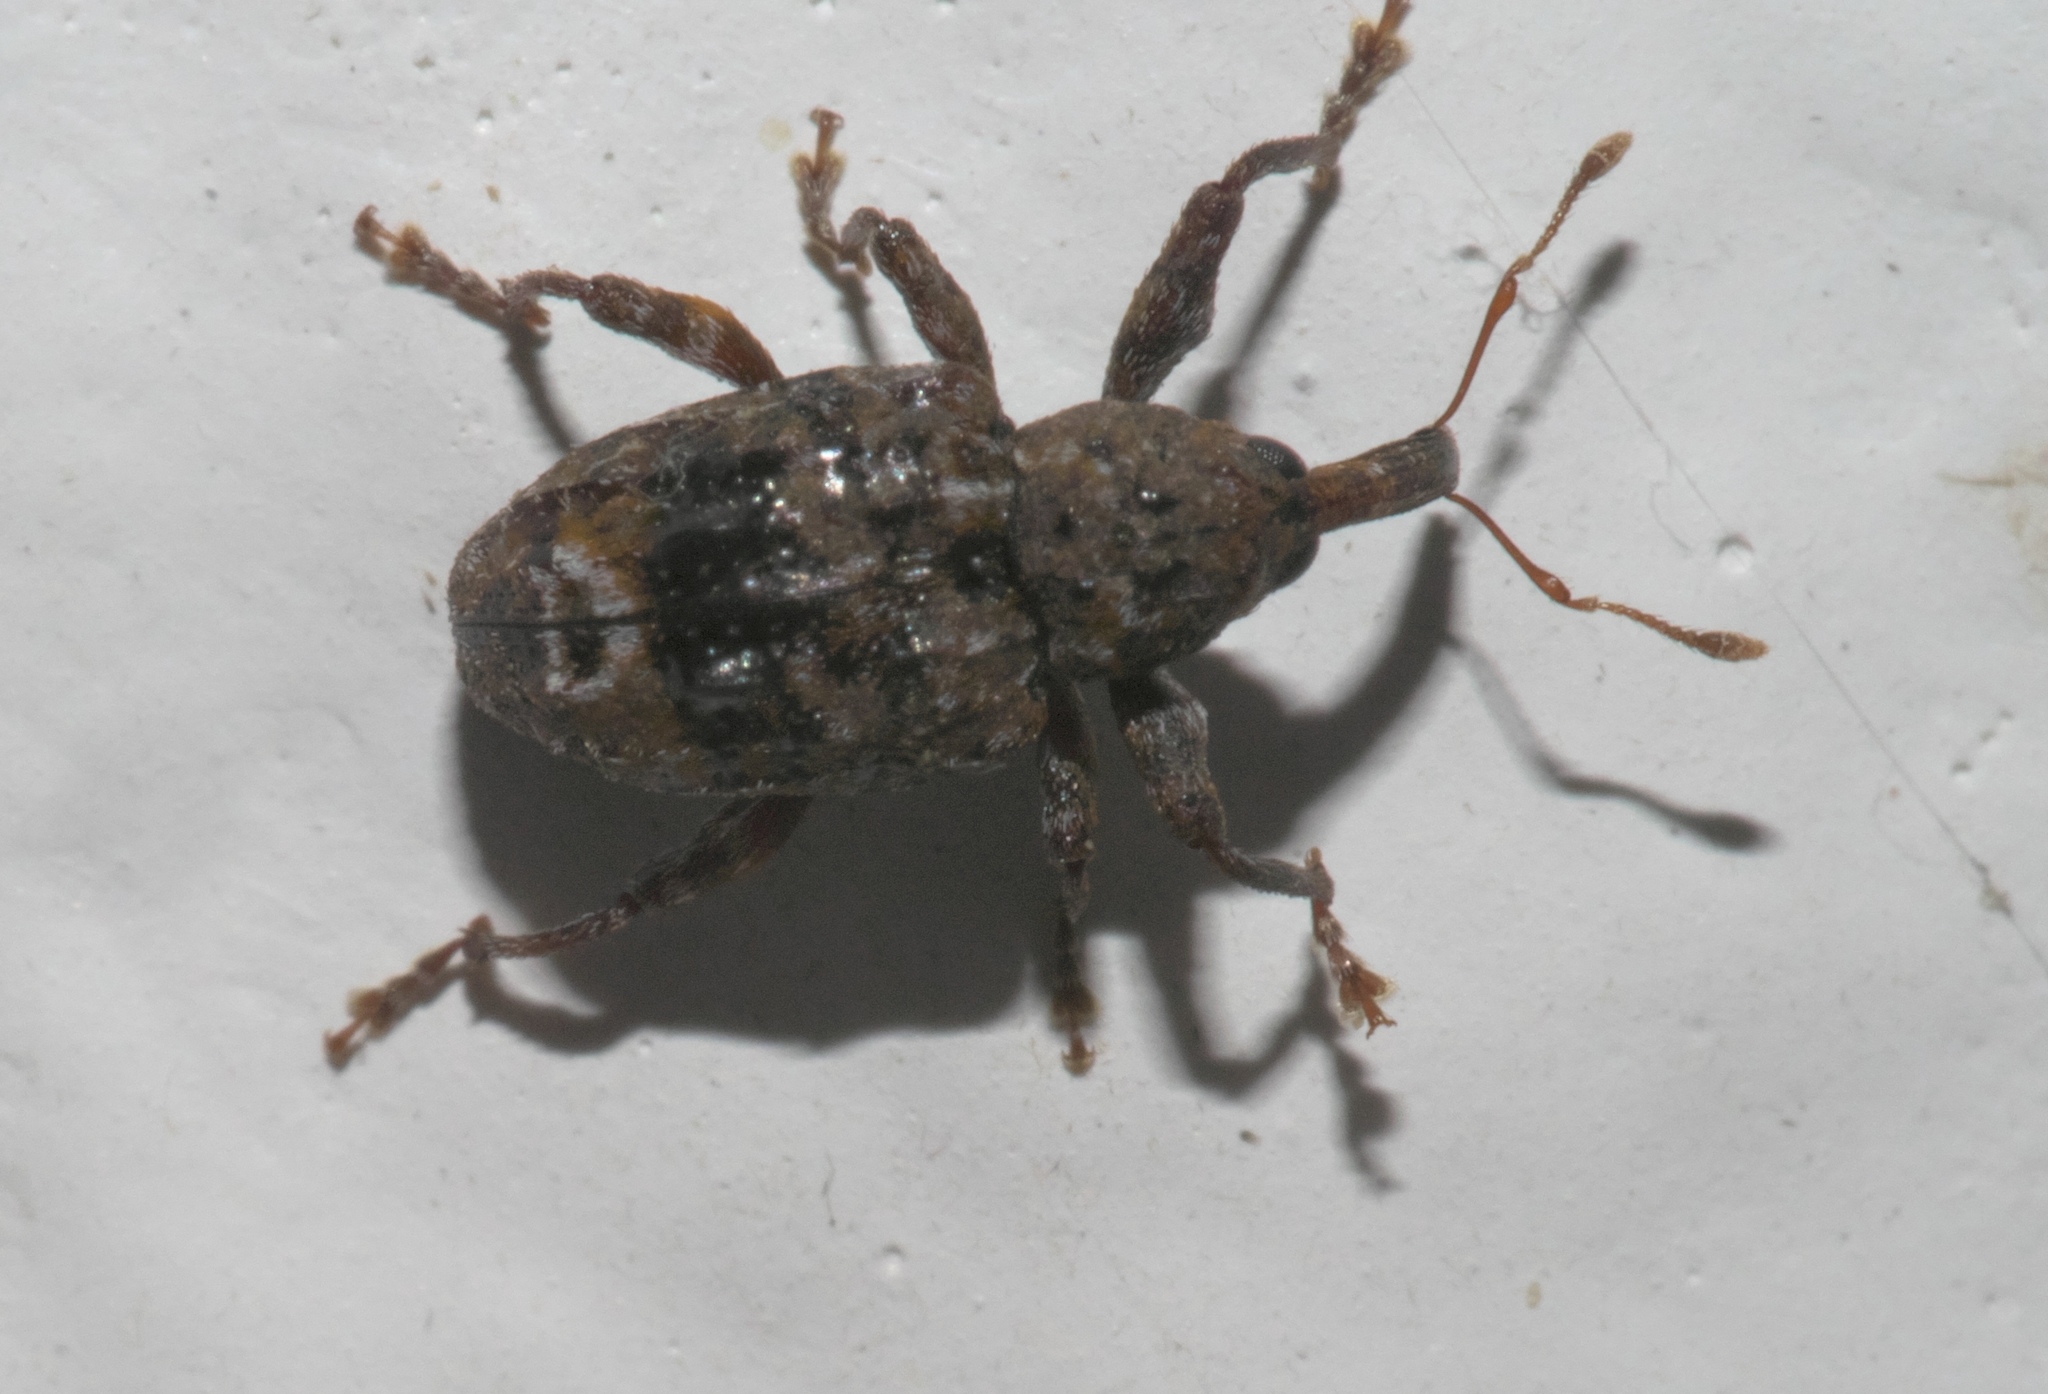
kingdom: Animalia
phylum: Arthropoda
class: Insecta
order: Coleoptera
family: Curculionidae
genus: Conotrachelus
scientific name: Conotrachelus nenuphar
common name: Plum curculio
